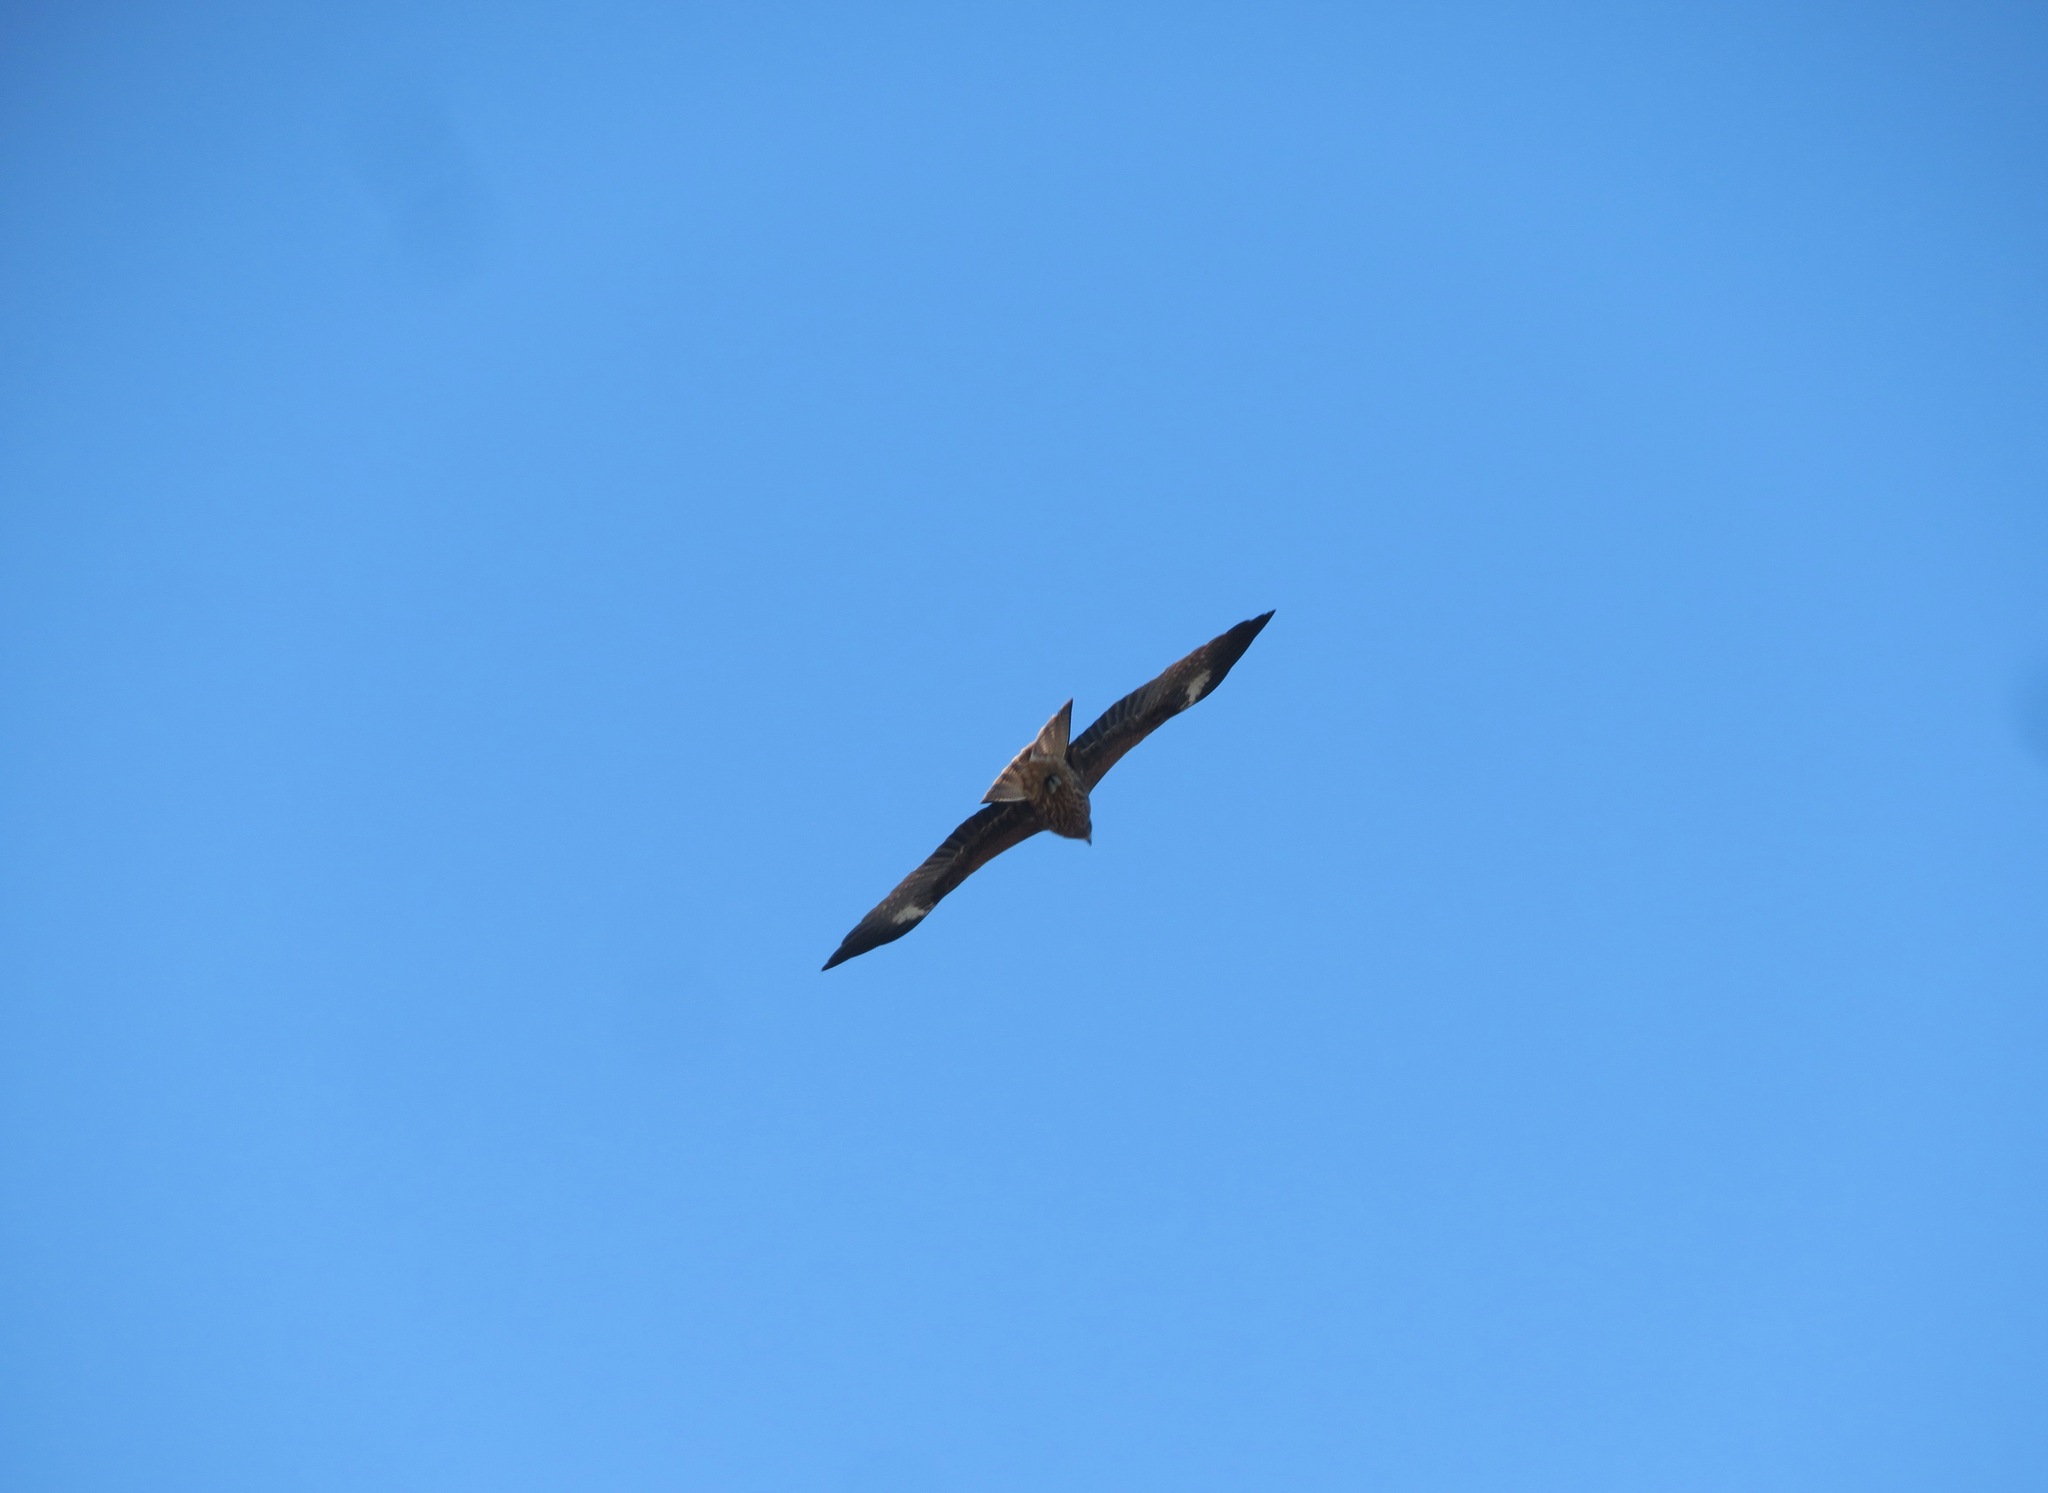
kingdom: Animalia
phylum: Chordata
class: Aves
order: Accipitriformes
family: Accipitridae
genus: Milvus
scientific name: Milvus migrans
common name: Black kite
